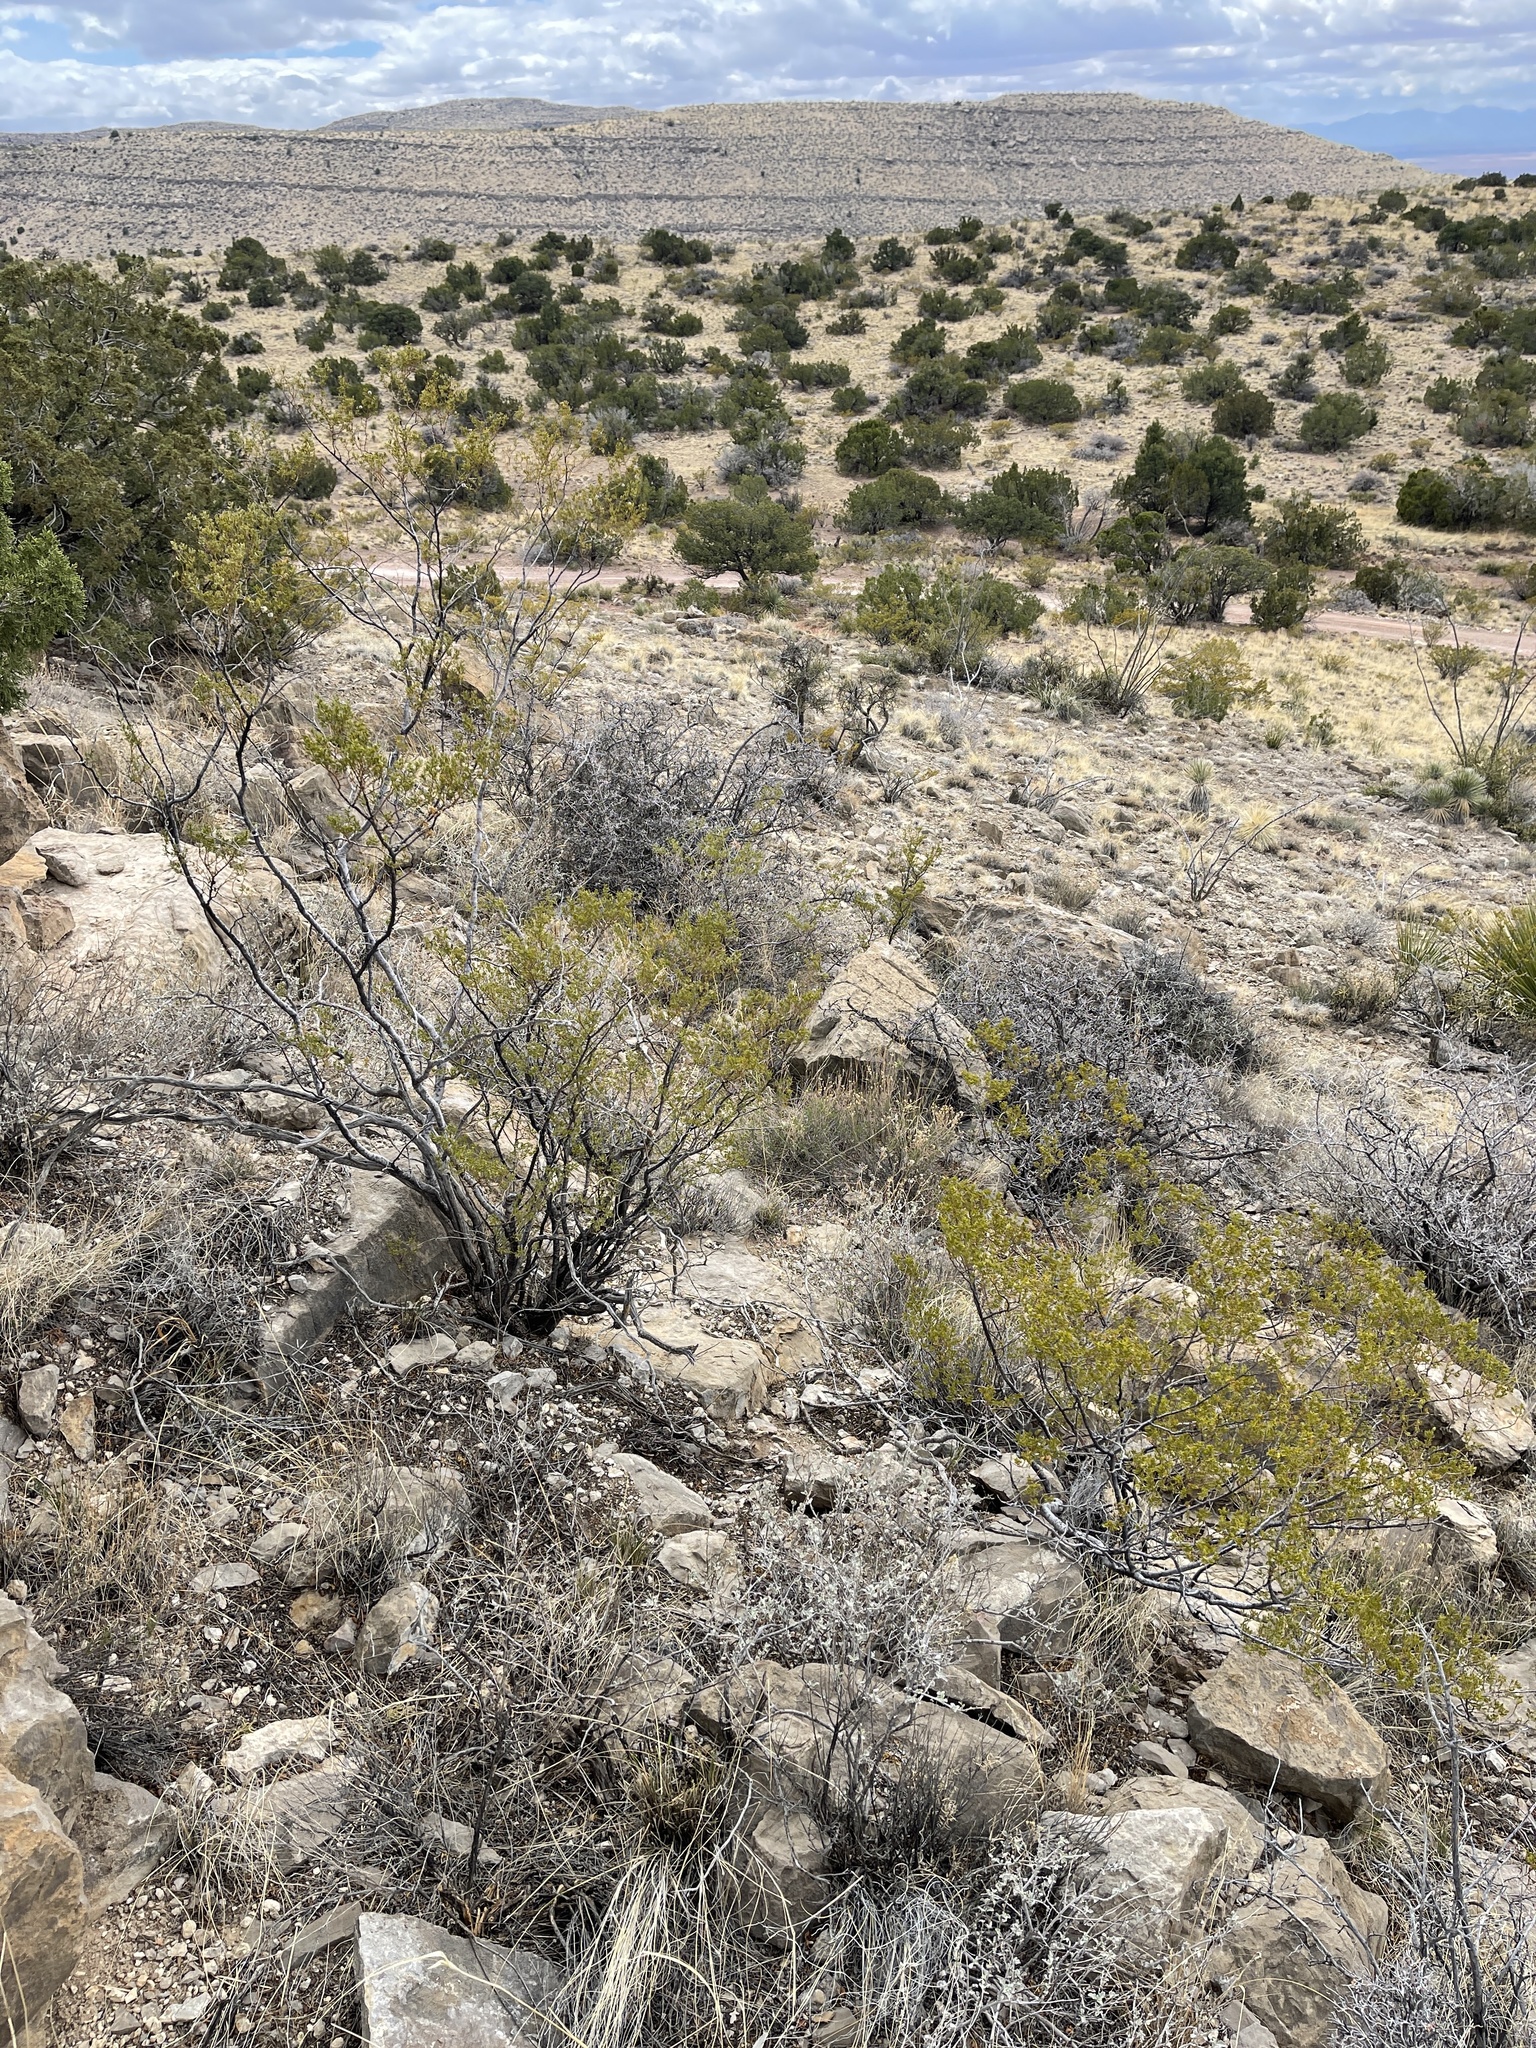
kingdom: Plantae
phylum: Tracheophyta
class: Magnoliopsida
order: Zygophyllales
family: Zygophyllaceae
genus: Larrea
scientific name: Larrea tridentata
